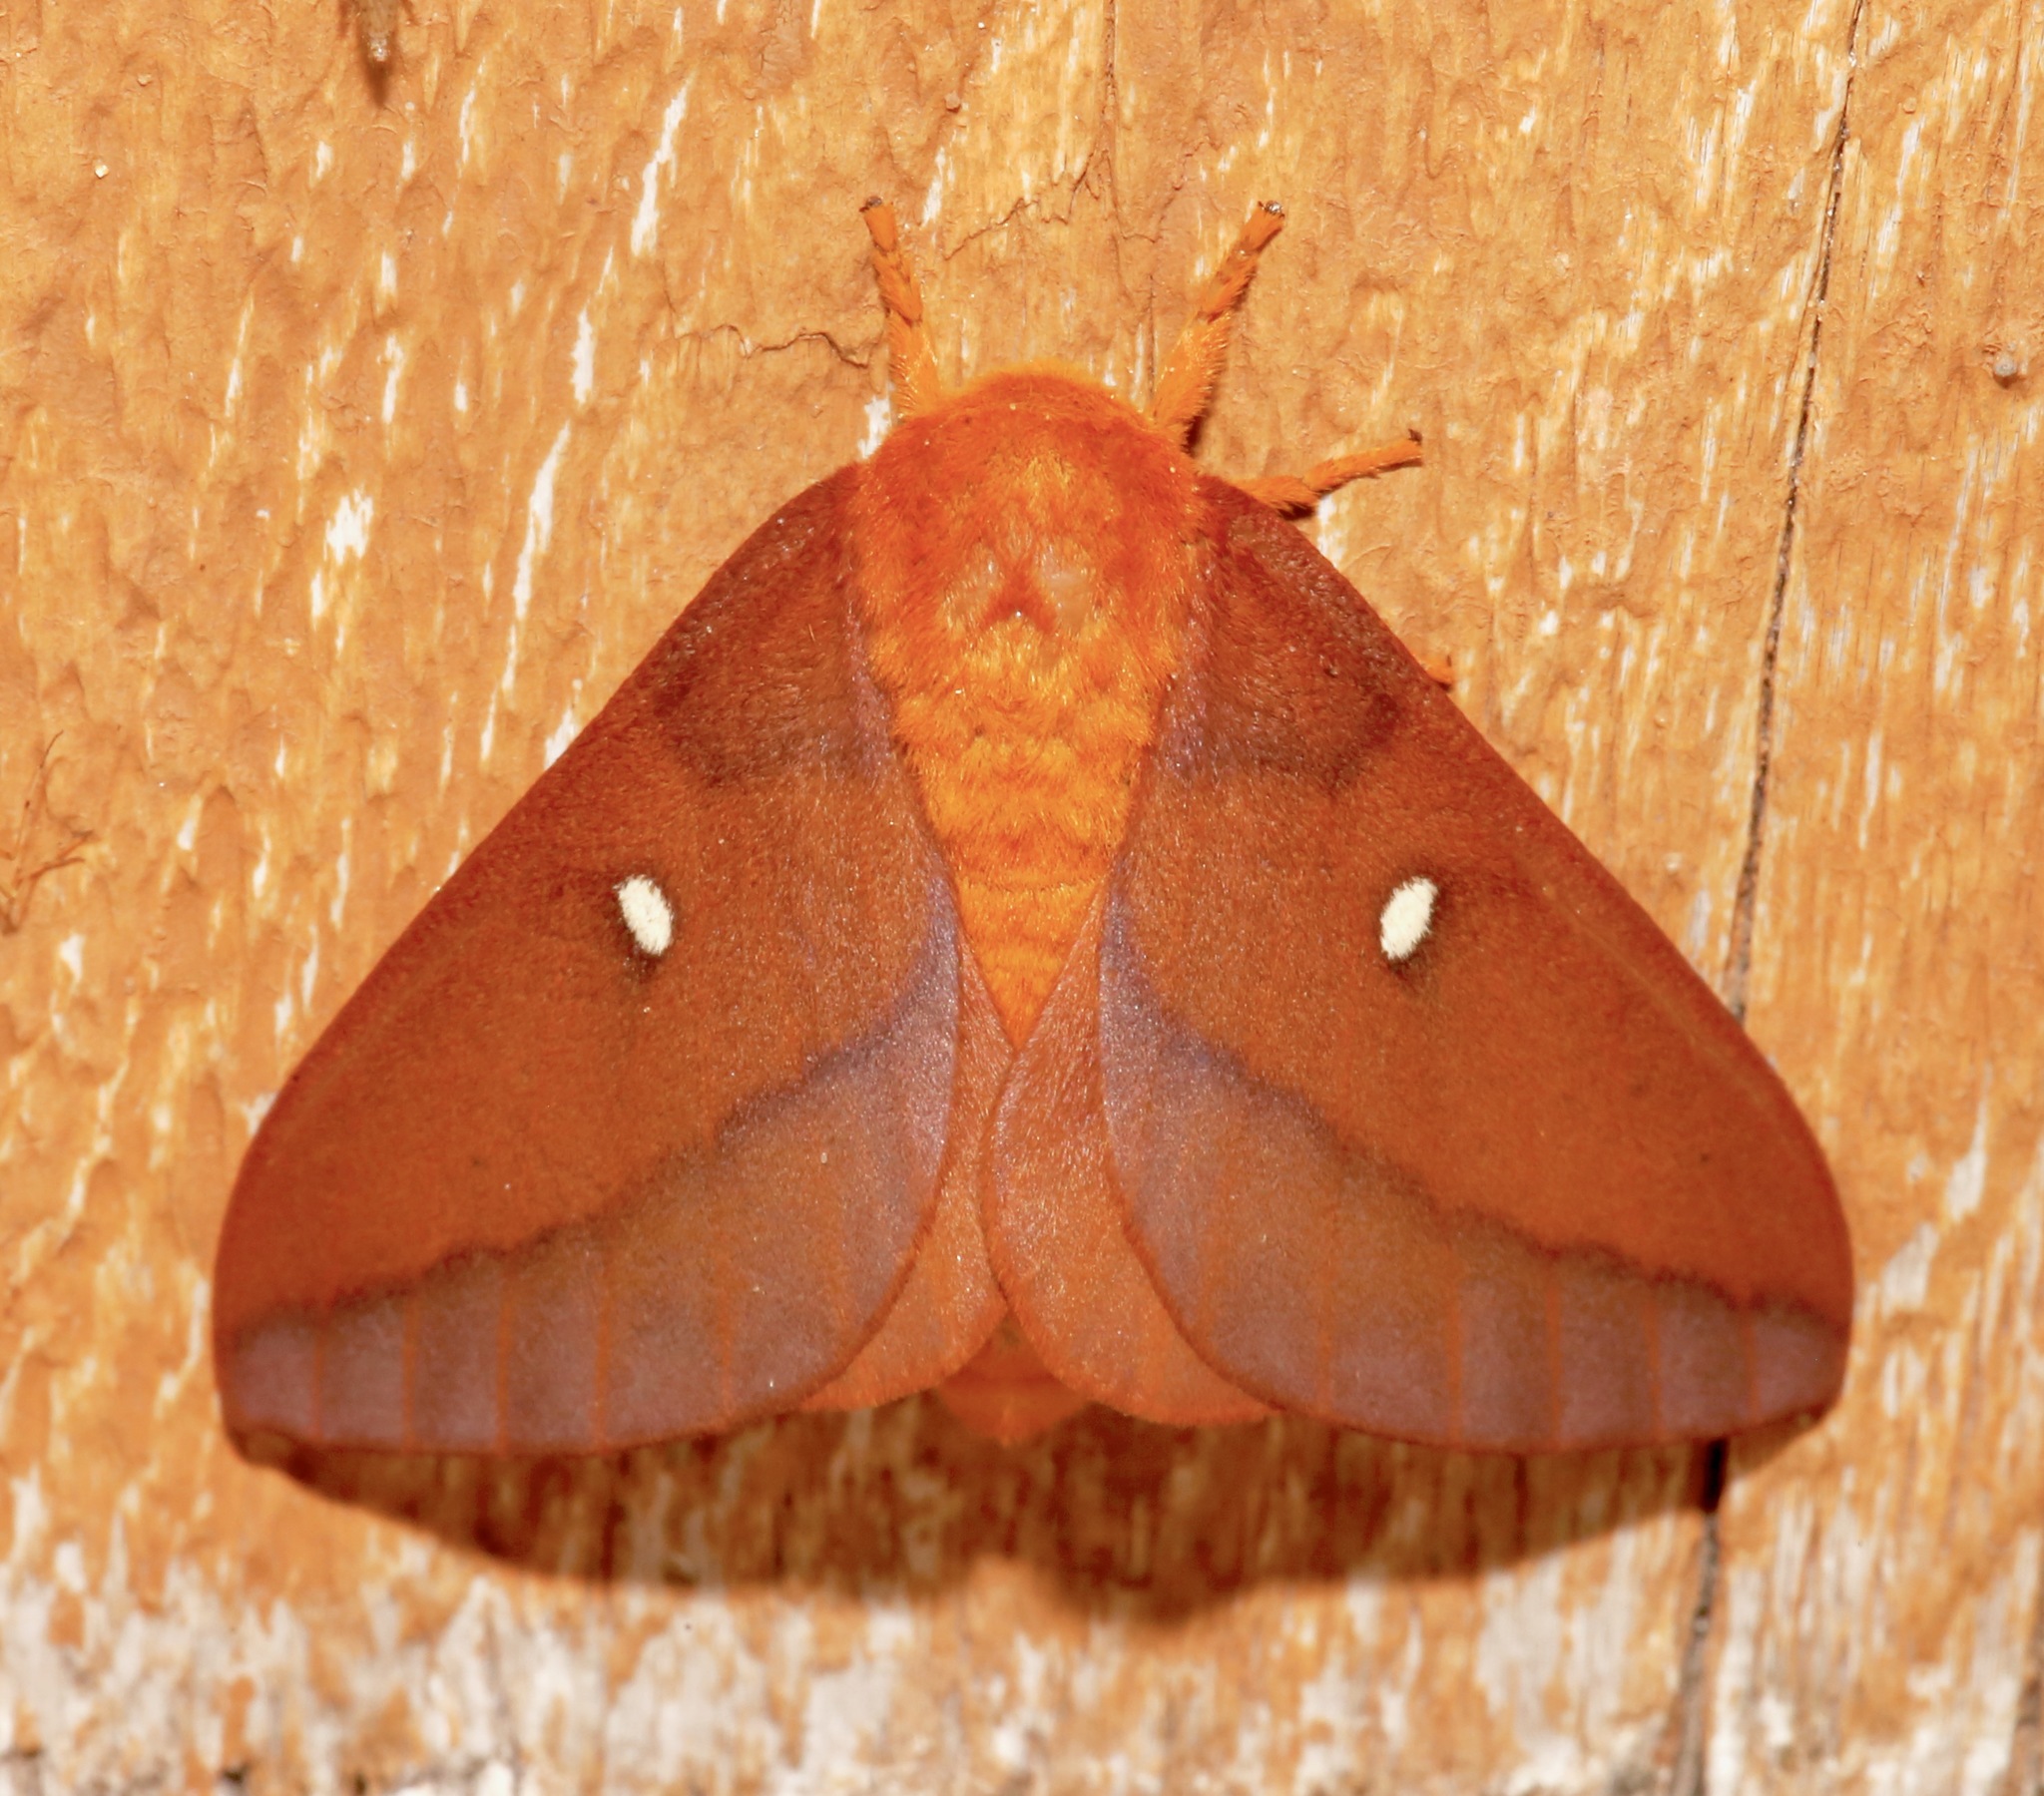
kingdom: Animalia
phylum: Arthropoda
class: Insecta
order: Lepidoptera
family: Saturniidae
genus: Anisota
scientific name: Anisota virginiensis
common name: Pink striped oakworm moth
